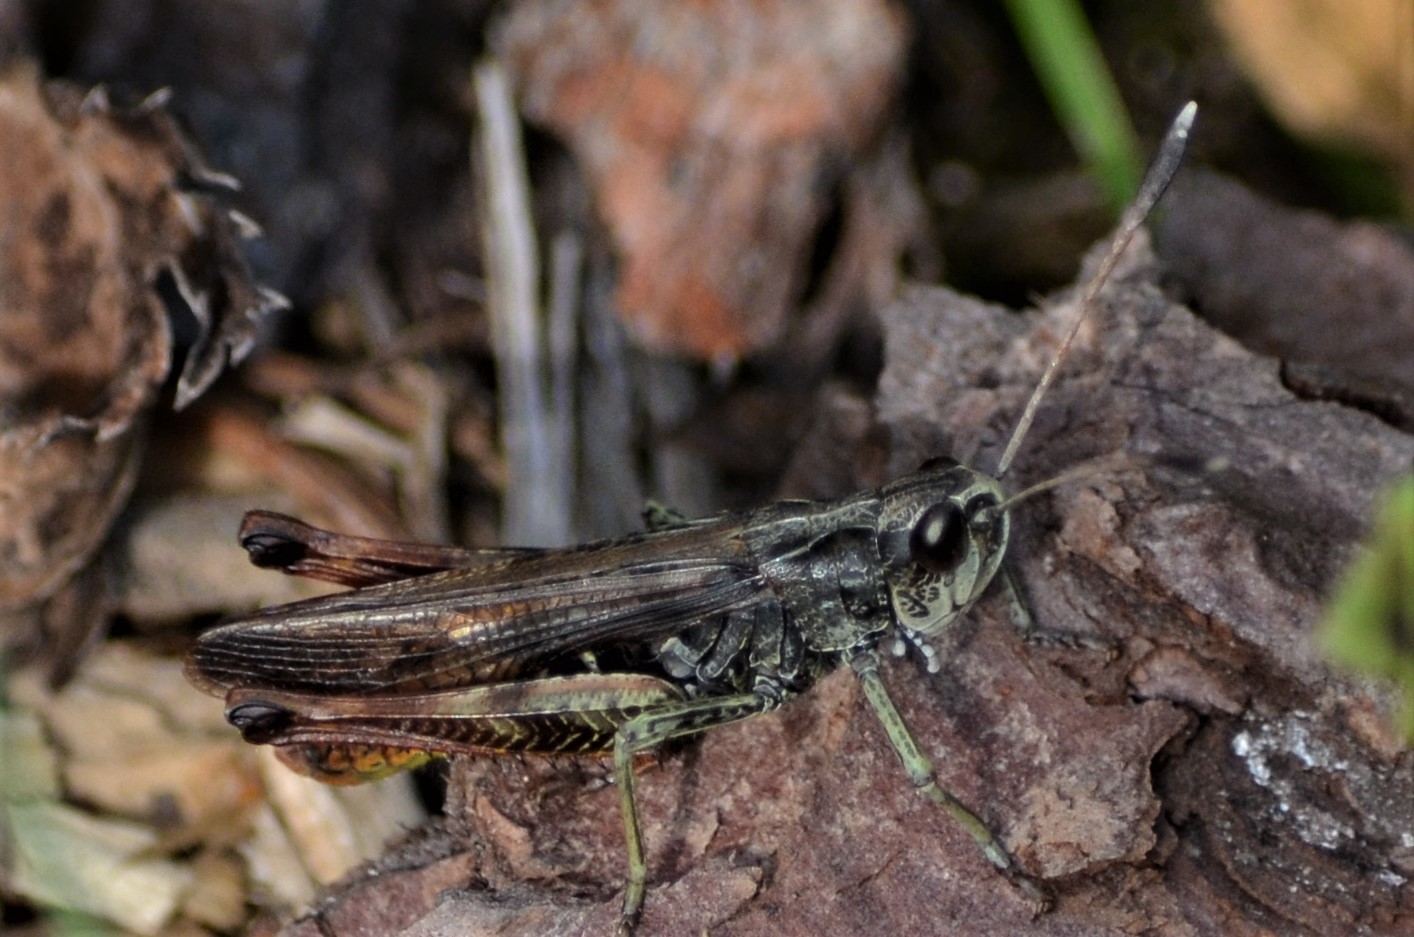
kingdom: Animalia
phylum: Arthropoda
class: Insecta
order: Orthoptera
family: Acrididae
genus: Gomphocerippus
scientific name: Gomphocerippus rufus
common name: Rufous grasshopper
